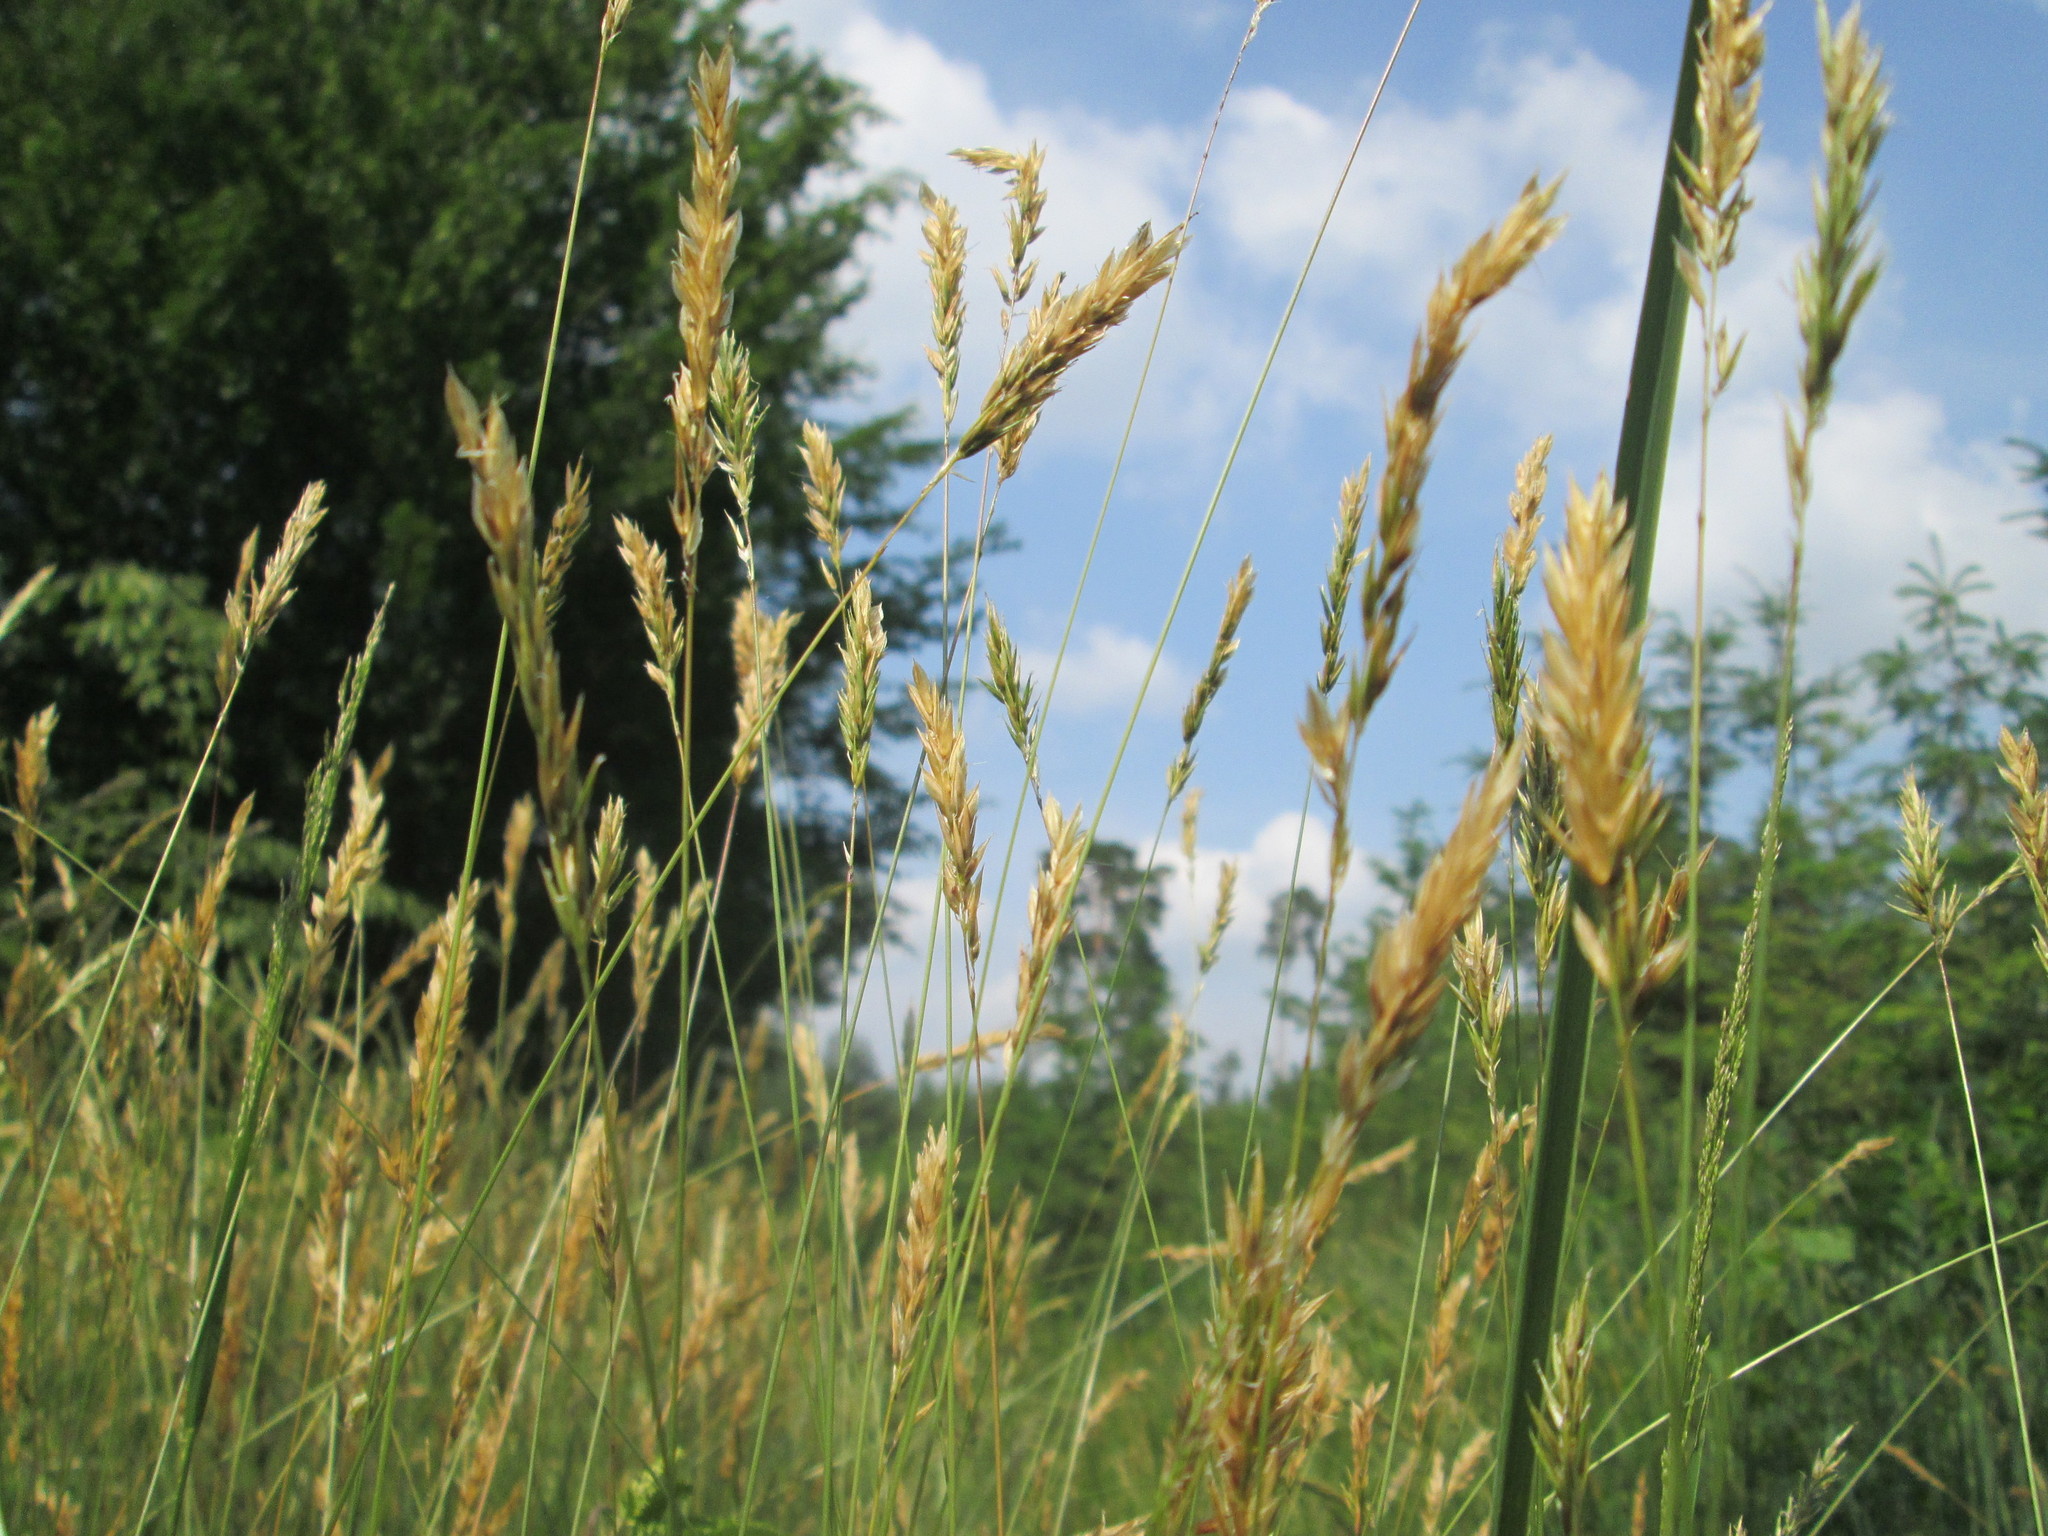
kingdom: Plantae
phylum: Tracheophyta
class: Liliopsida
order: Poales
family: Poaceae
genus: Anthoxanthum
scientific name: Anthoxanthum odoratum
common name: Sweet vernalgrass
